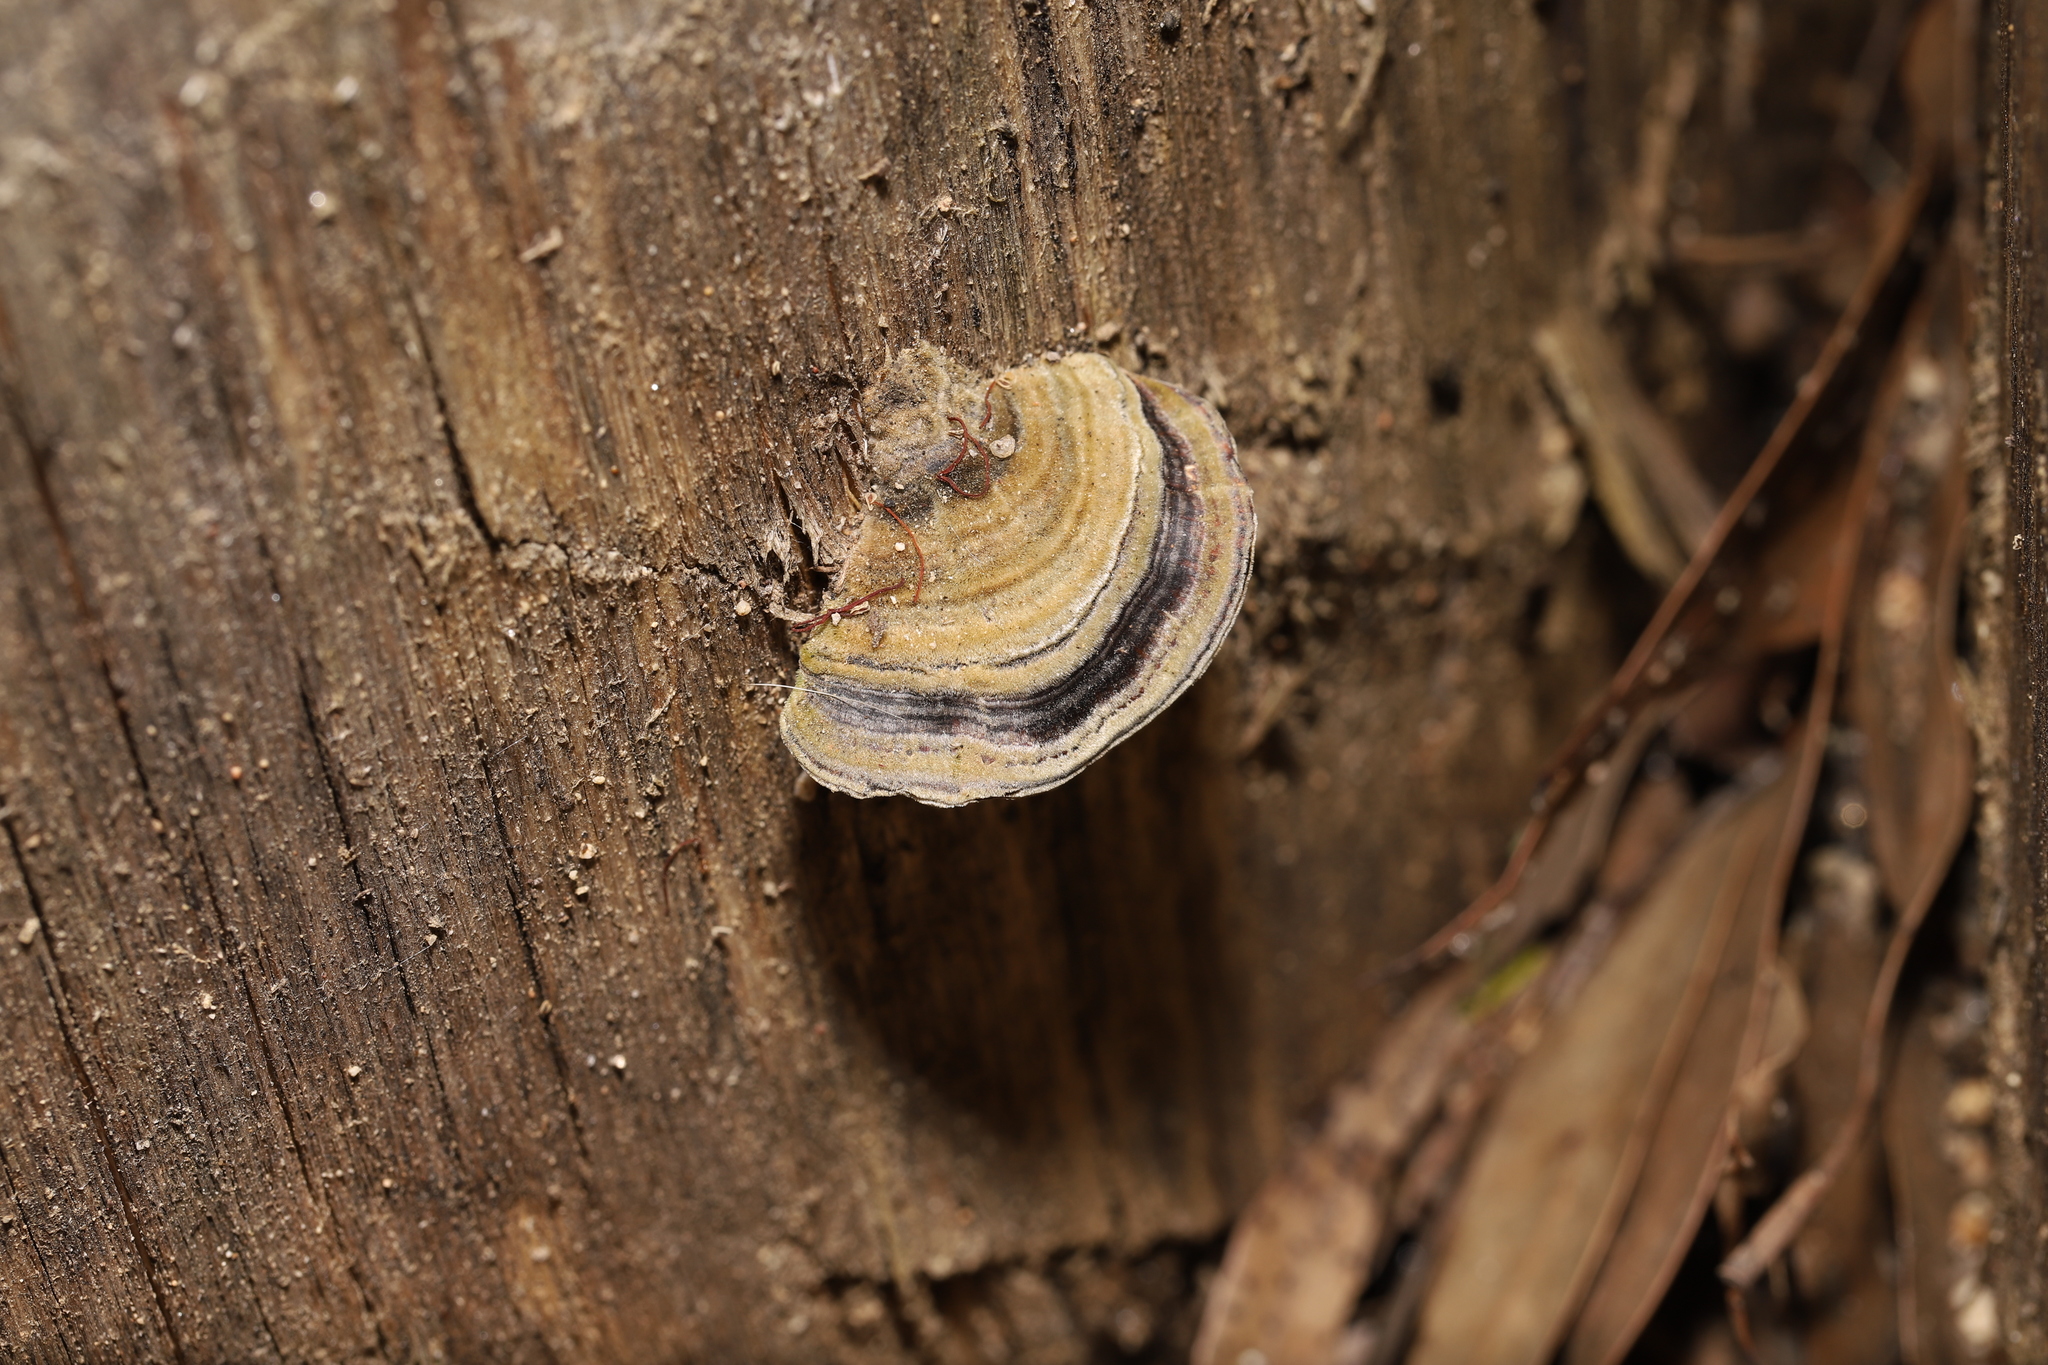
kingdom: Fungi
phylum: Basidiomycota
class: Agaricomycetes
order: Polyporales
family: Polyporaceae
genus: Trametes
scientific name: Trametes versicolor
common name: Turkeytail
